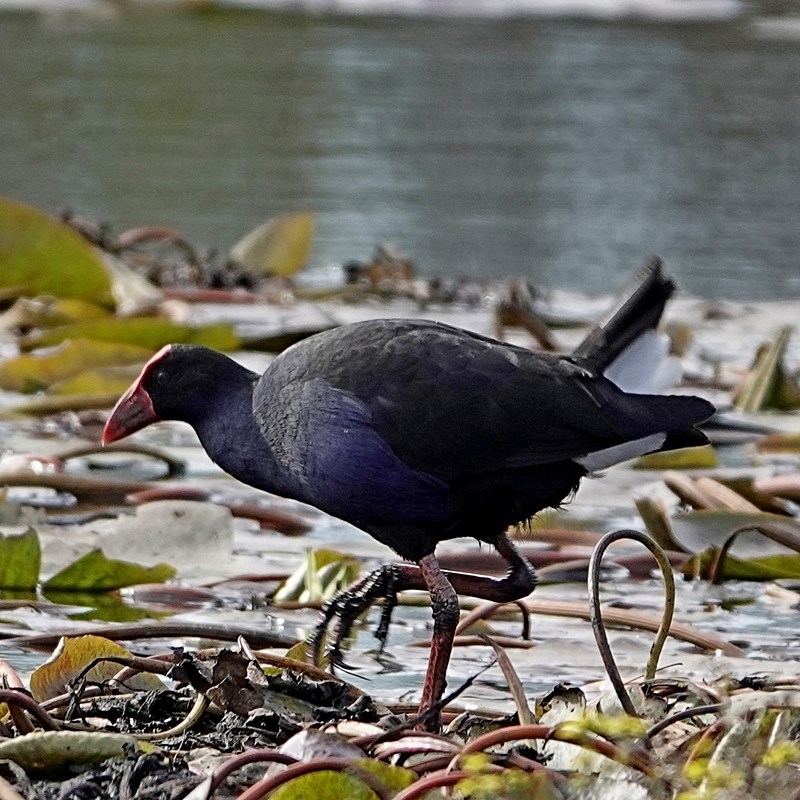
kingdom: Animalia
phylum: Chordata
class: Aves
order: Gruiformes
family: Rallidae
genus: Porphyrio
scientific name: Porphyrio melanotus
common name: Australasian swamphen
